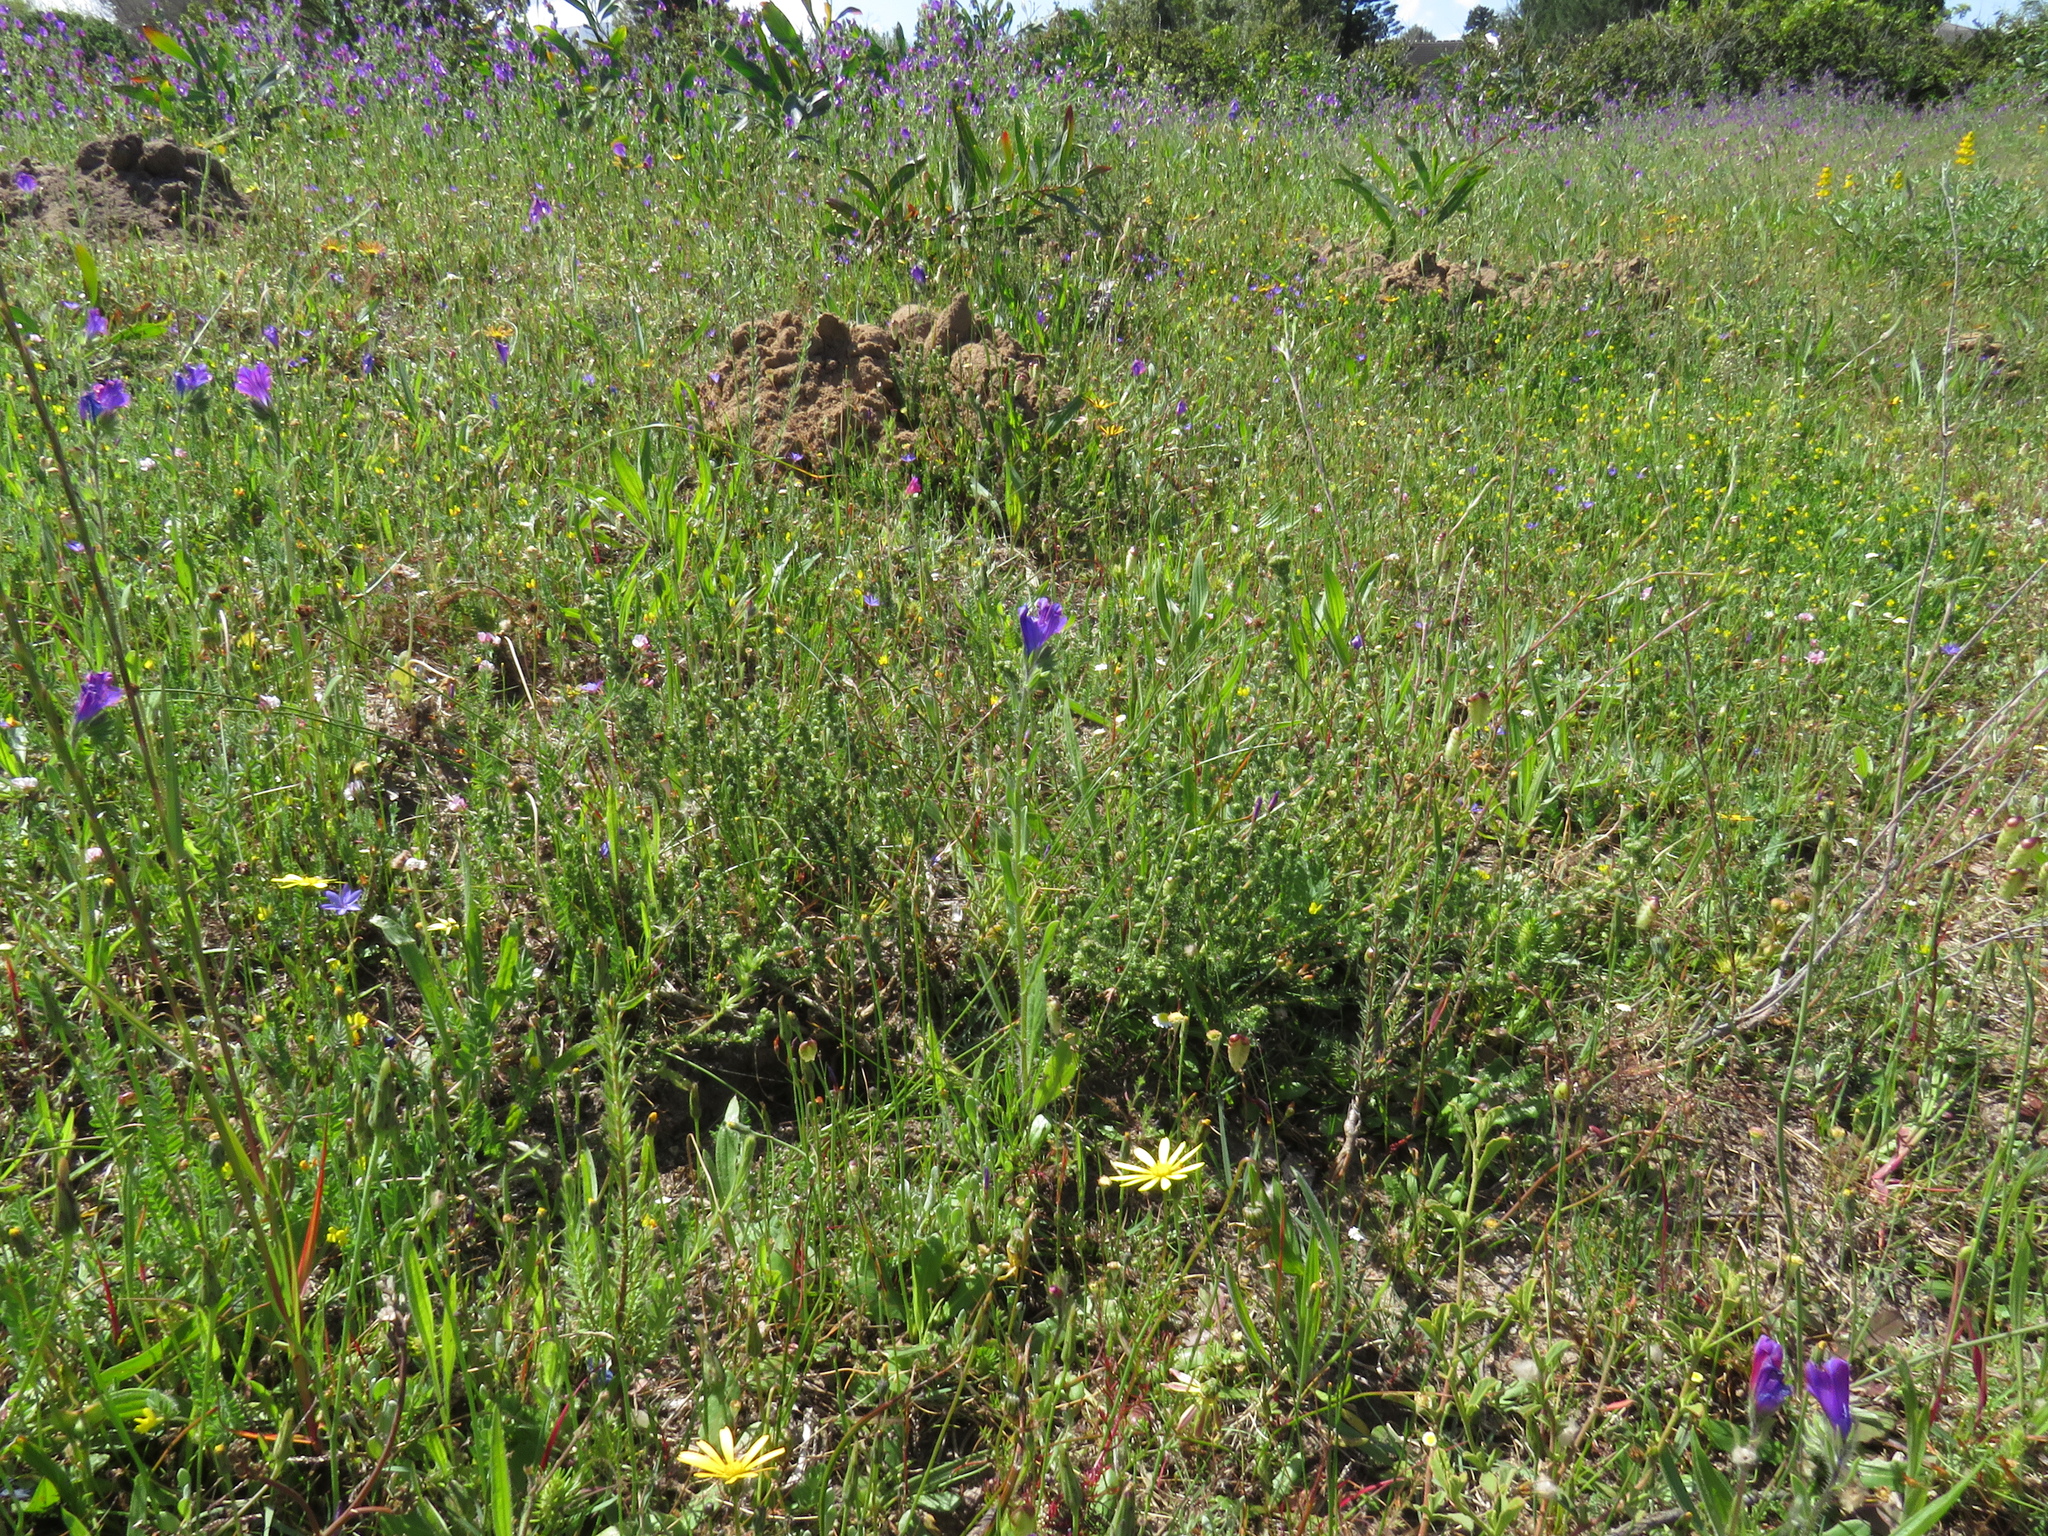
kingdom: Plantae
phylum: Tracheophyta
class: Magnoliopsida
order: Boraginales
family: Boraginaceae
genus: Echium
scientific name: Echium plantagineum
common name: Purple viper's-bugloss
